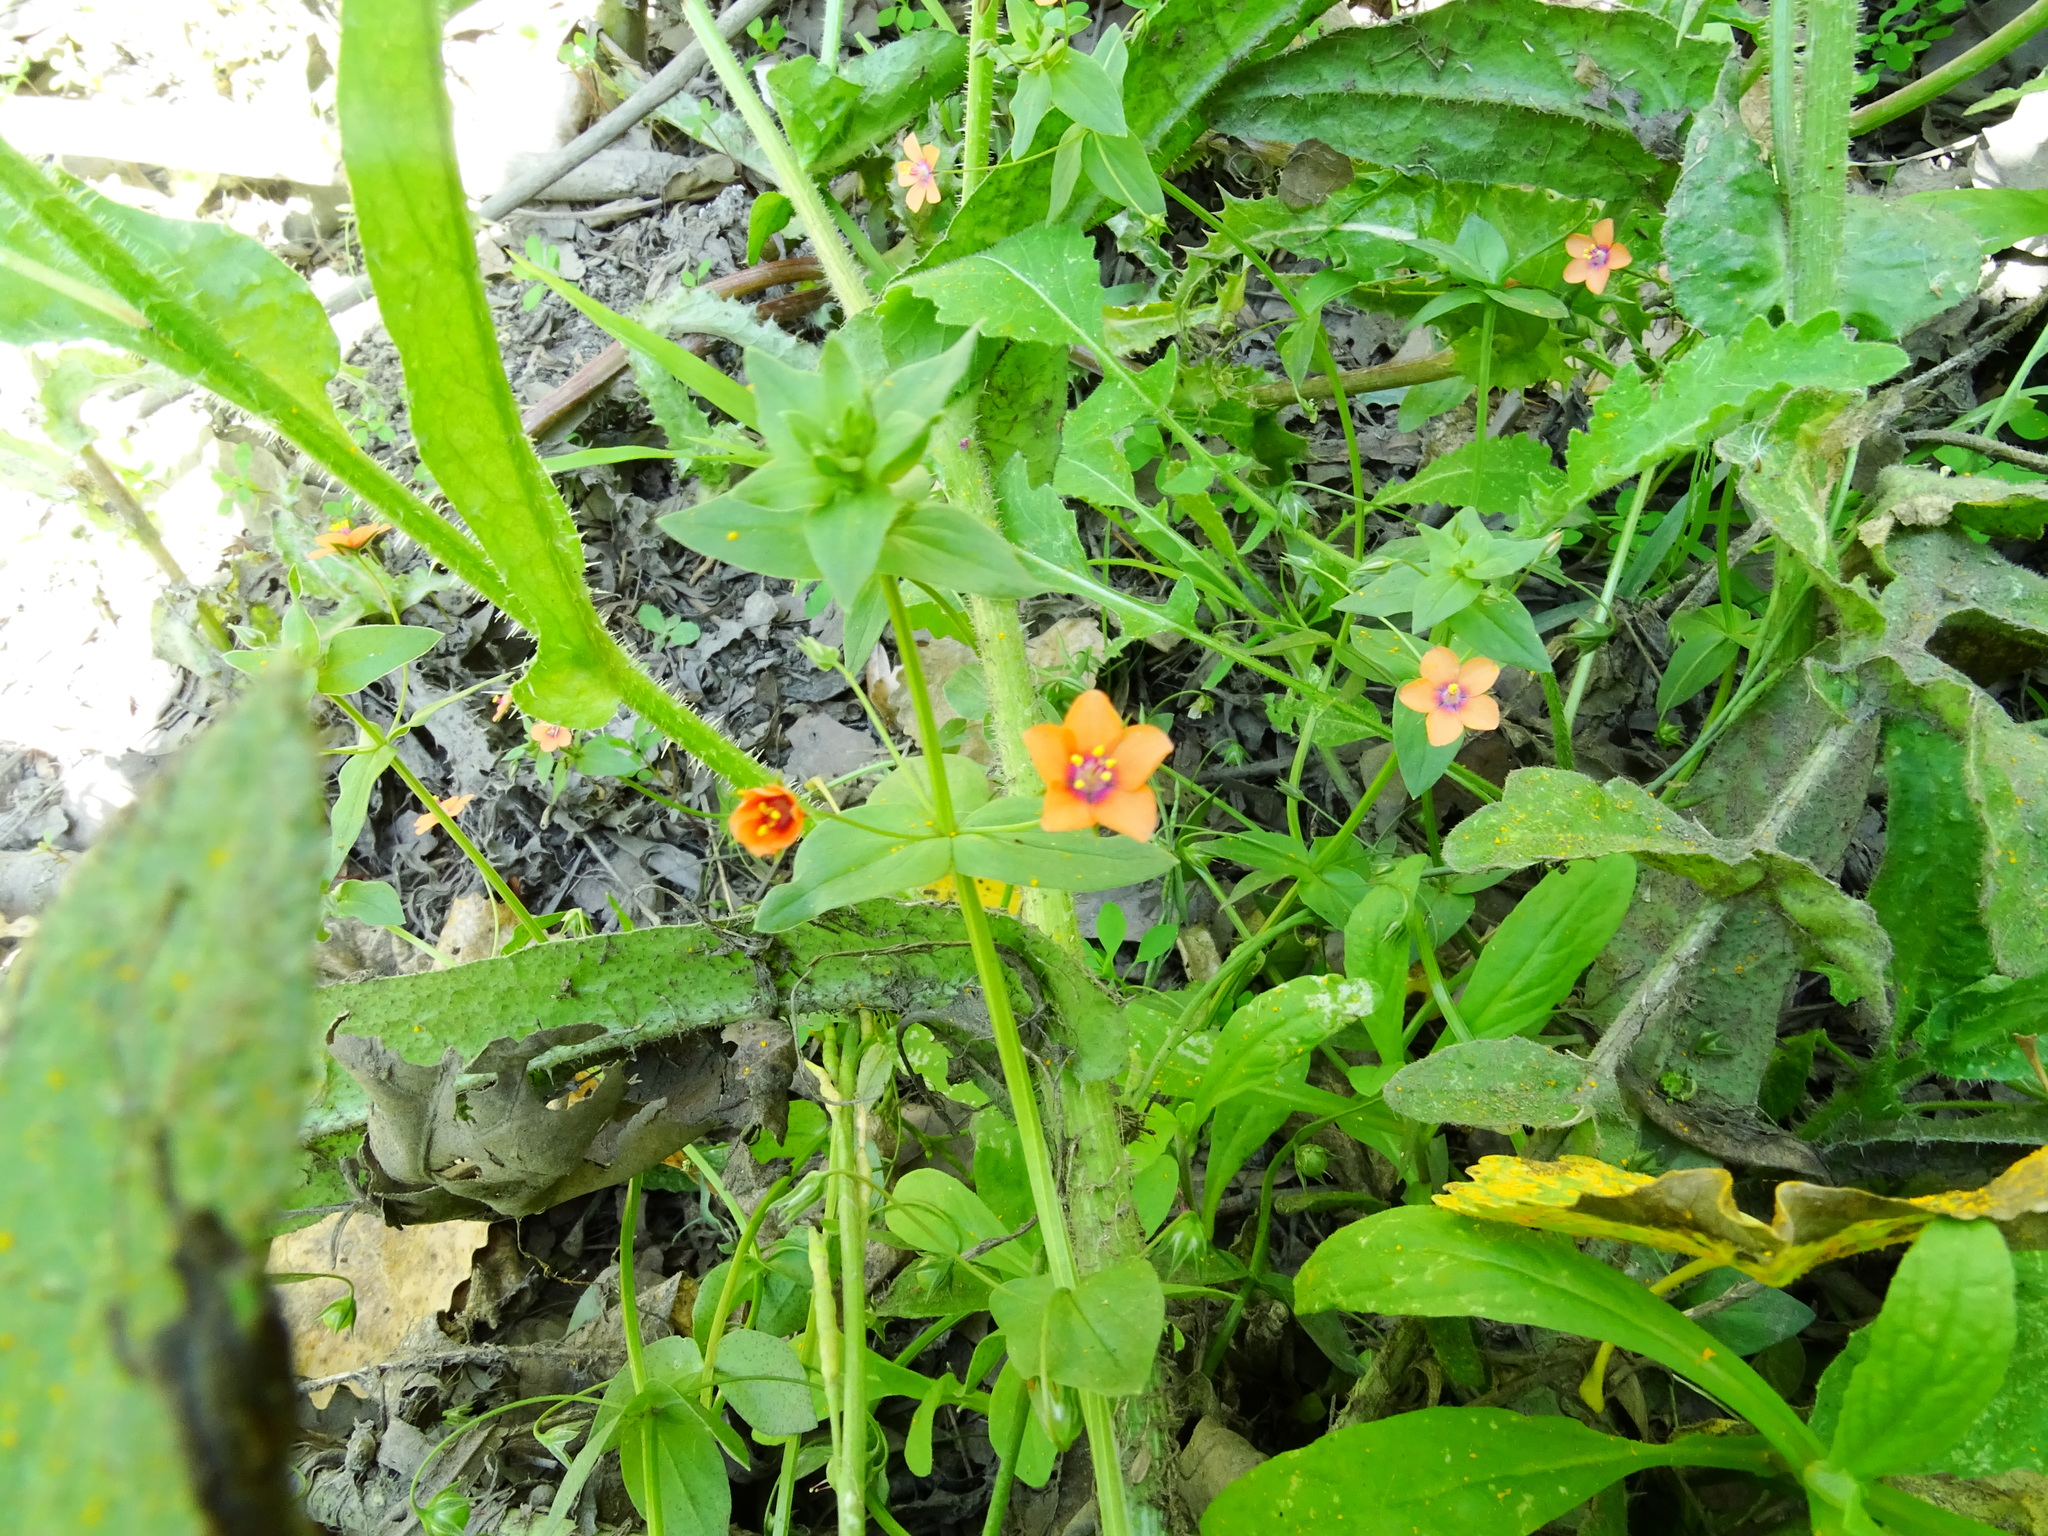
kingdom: Plantae
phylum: Tracheophyta
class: Magnoliopsida
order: Ericales
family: Primulaceae
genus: Lysimachia
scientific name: Lysimachia arvensis
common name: Scarlet pimpernel
